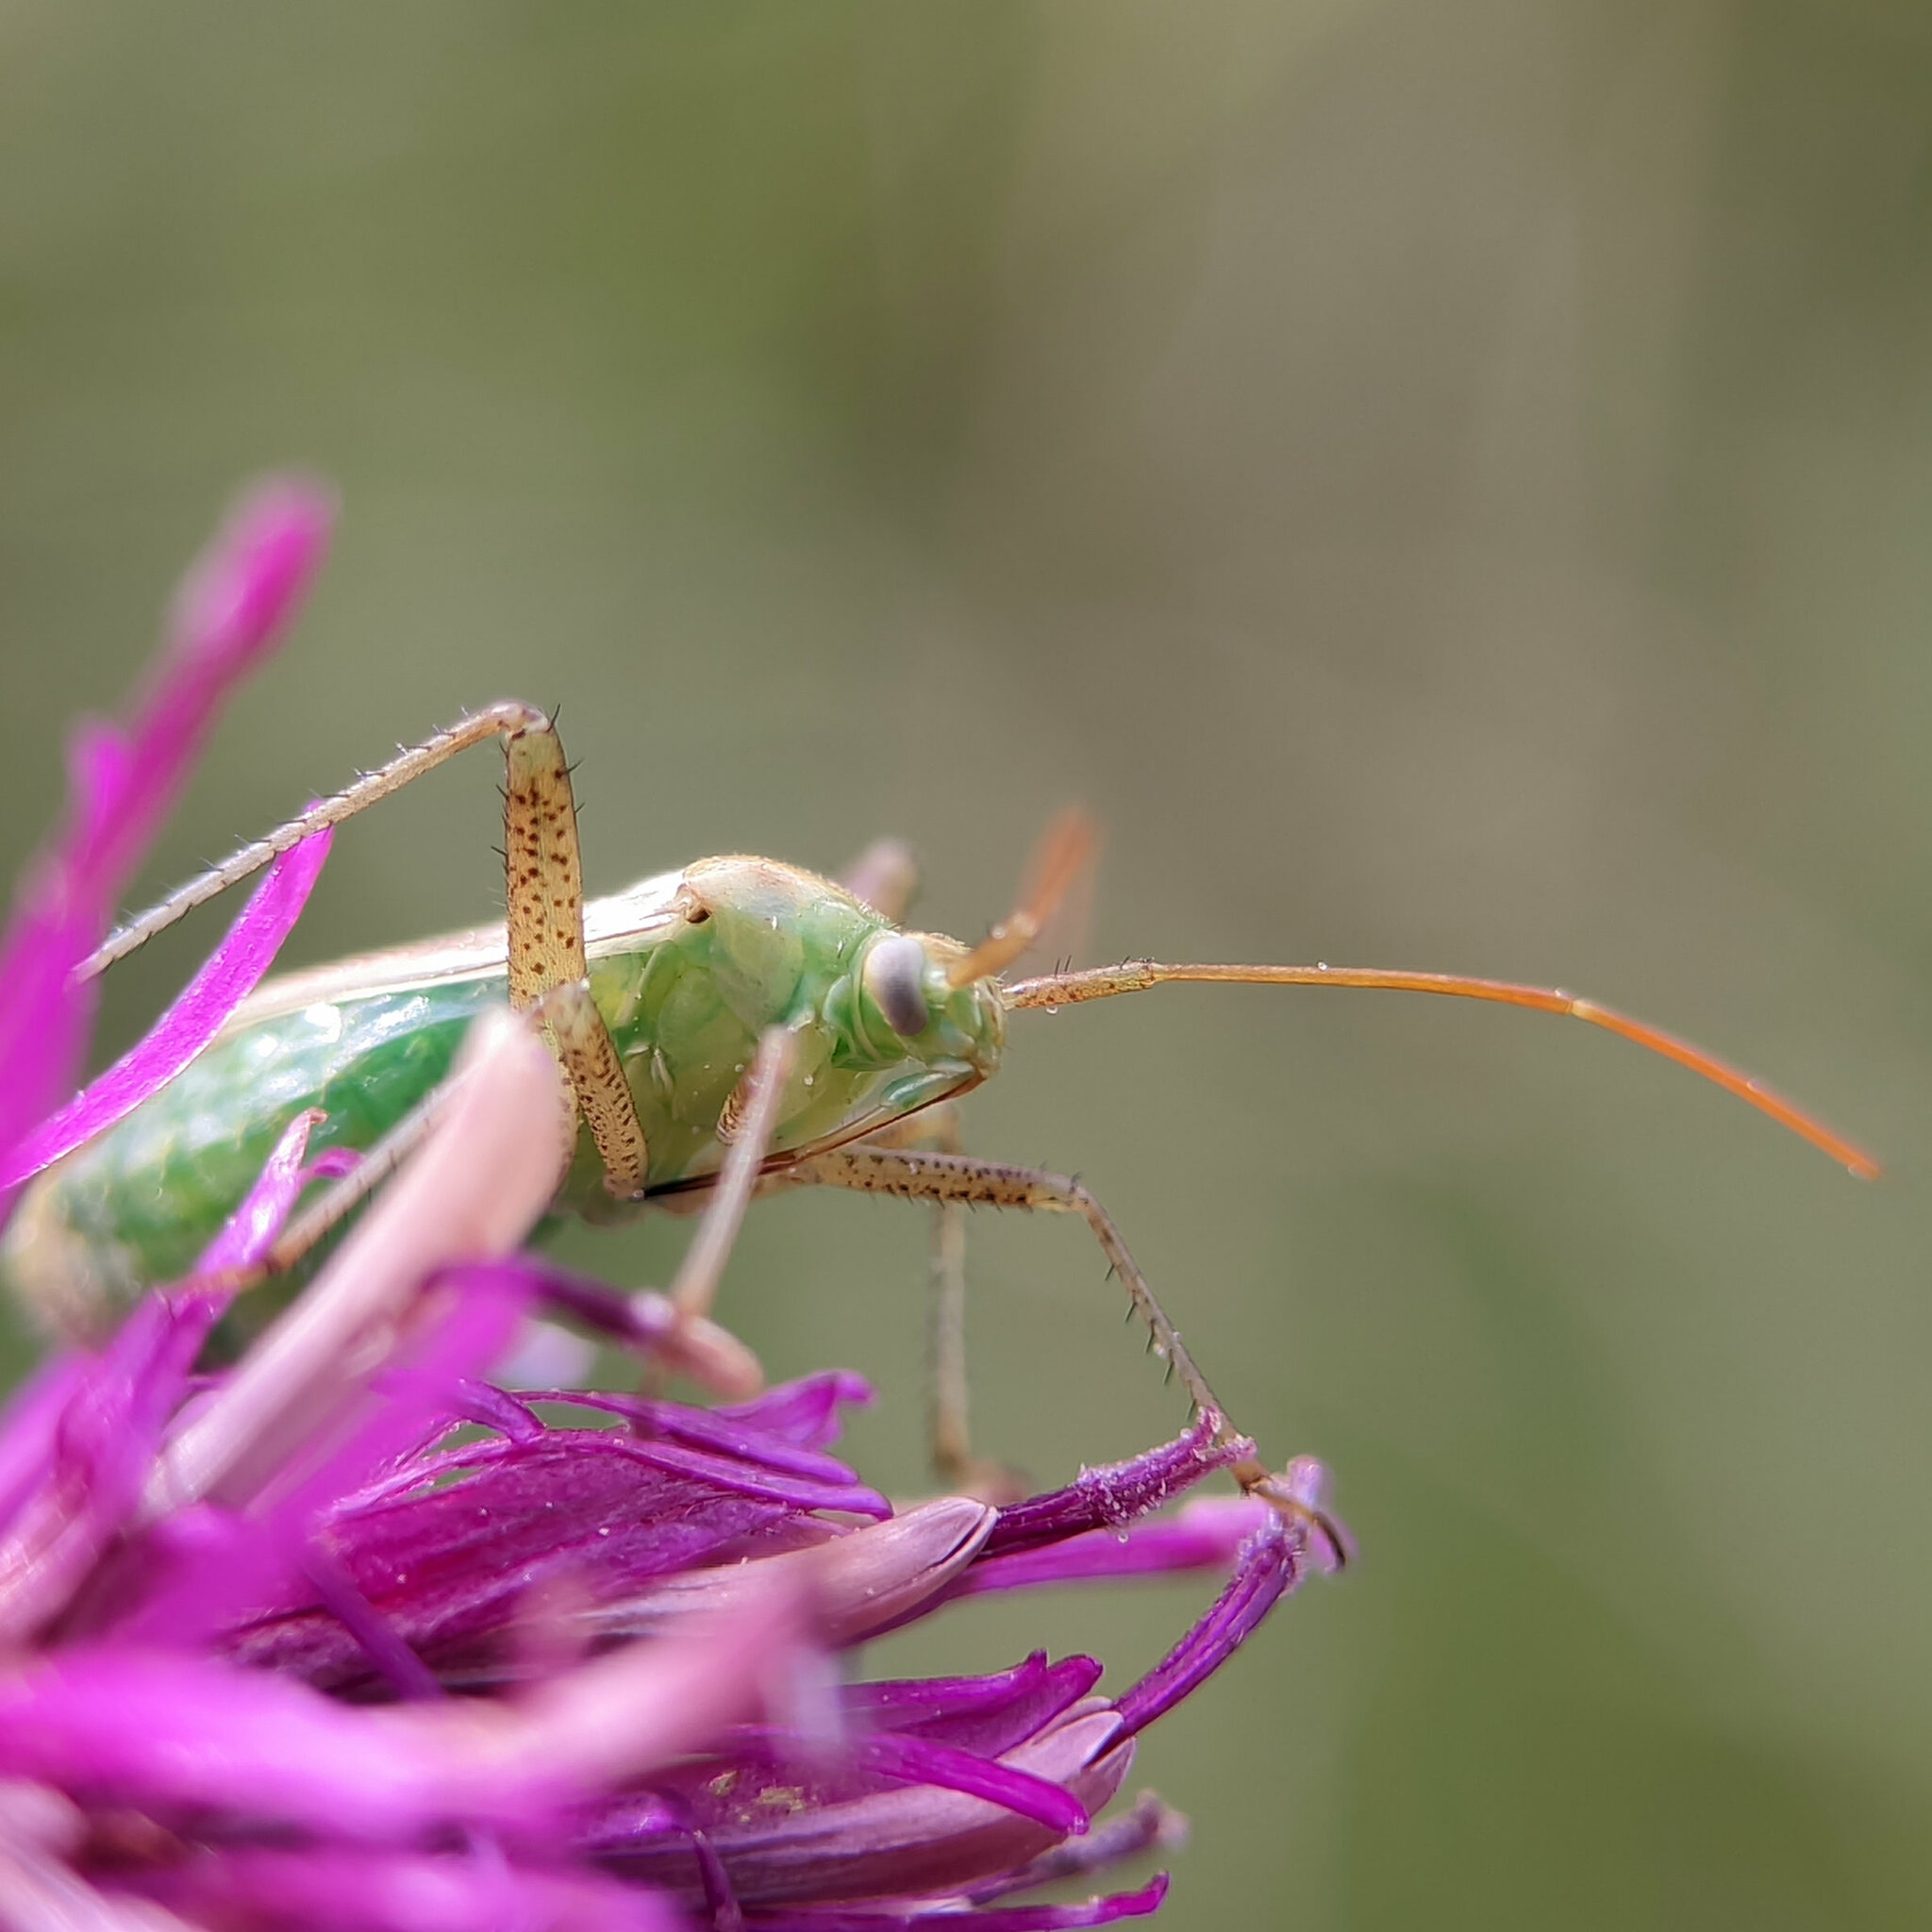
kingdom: Animalia
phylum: Arthropoda
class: Insecta
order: Hemiptera
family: Miridae
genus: Adelphocoris
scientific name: Adelphocoris lineolatus
